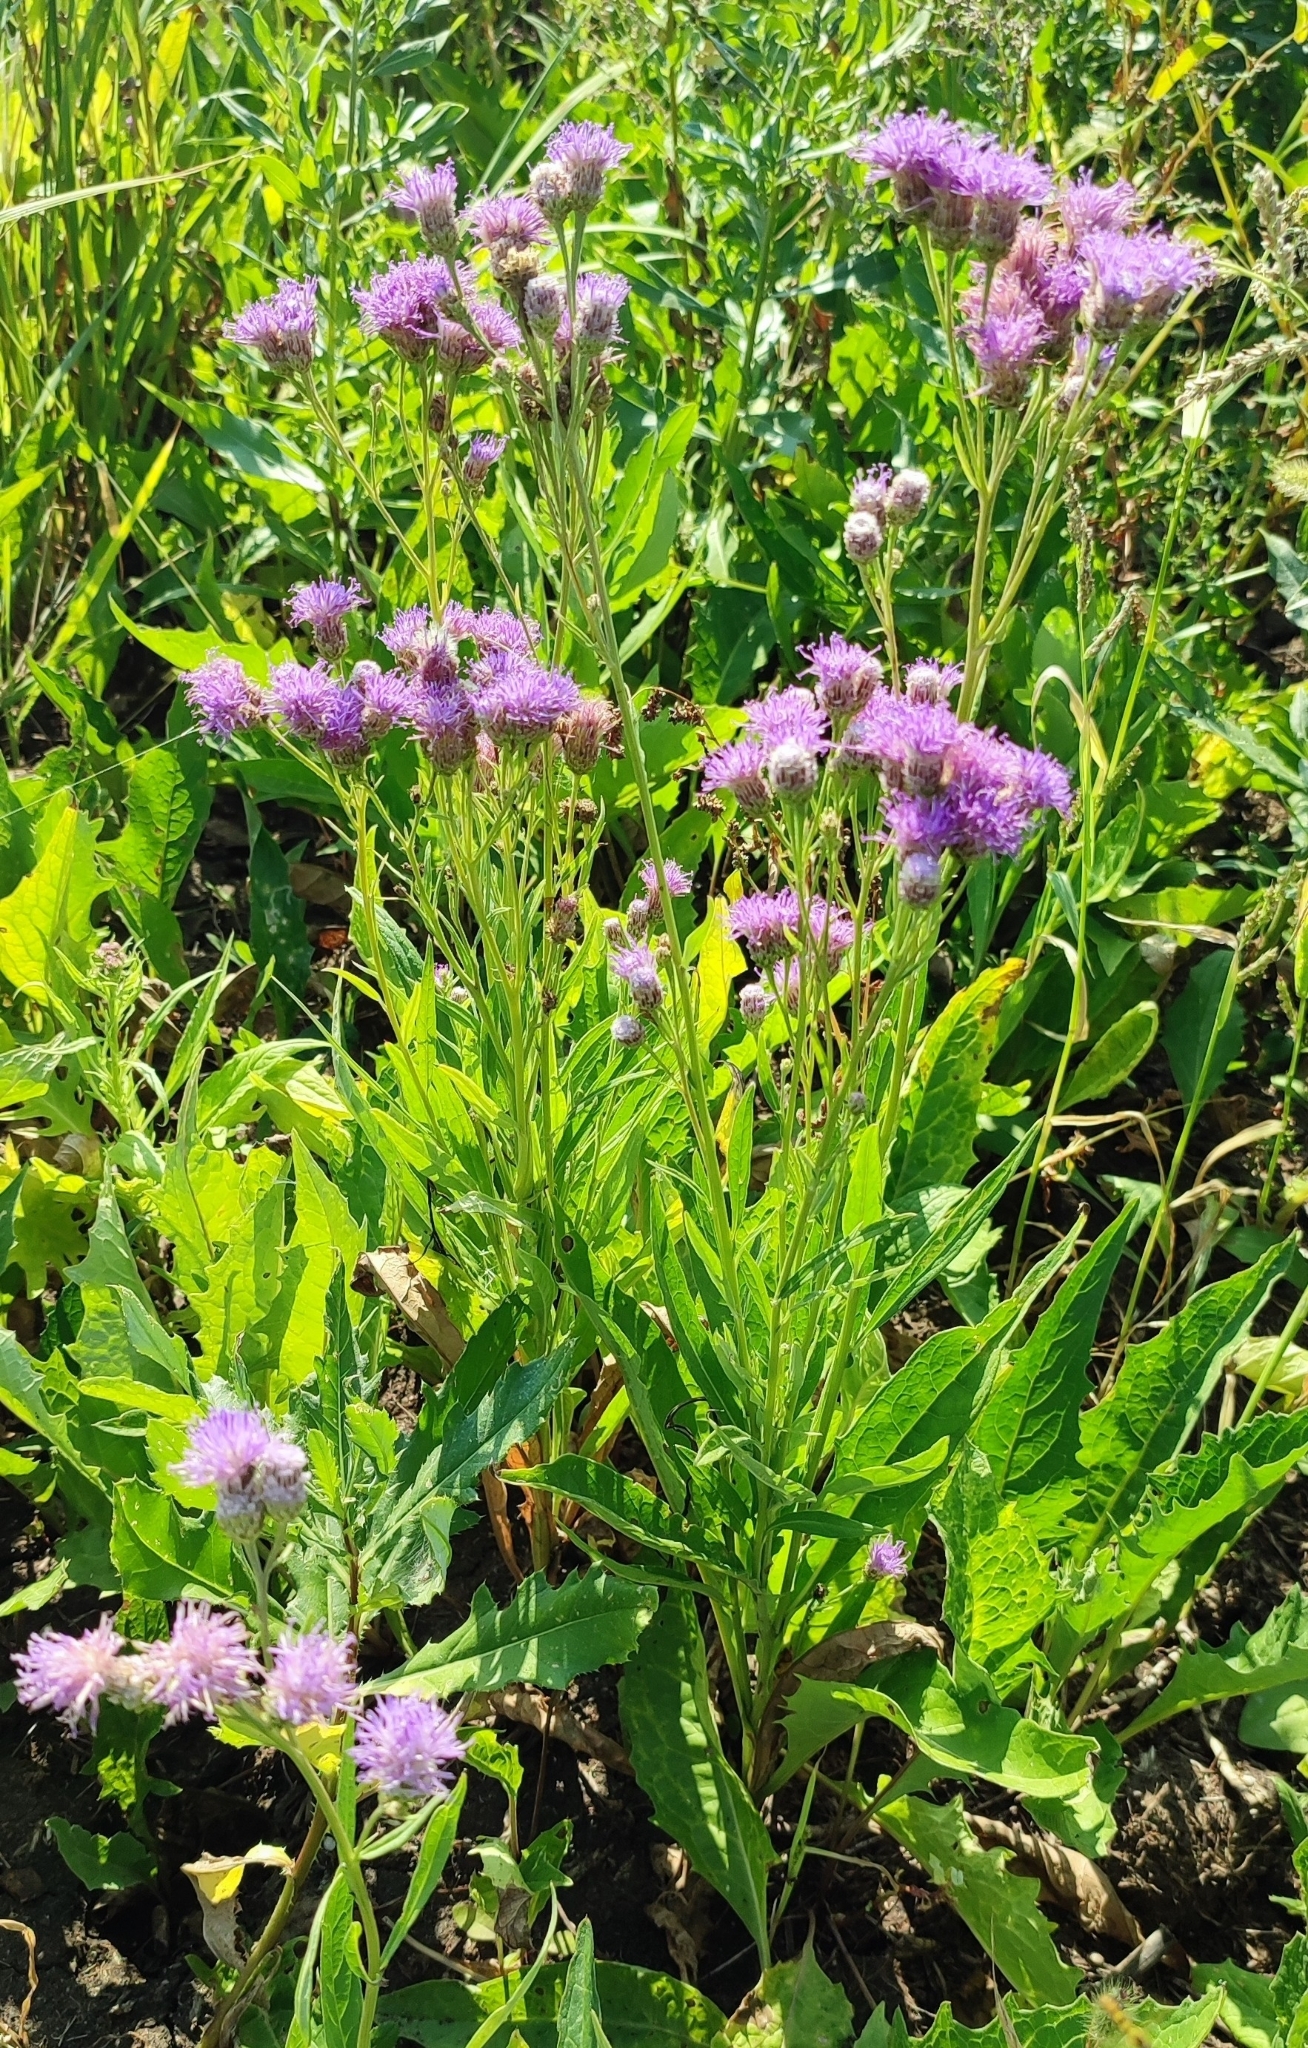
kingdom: Plantae
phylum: Tracheophyta
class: Magnoliopsida
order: Asterales
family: Asteraceae
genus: Saussurea
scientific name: Saussurea amara
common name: Alberta sawwort
